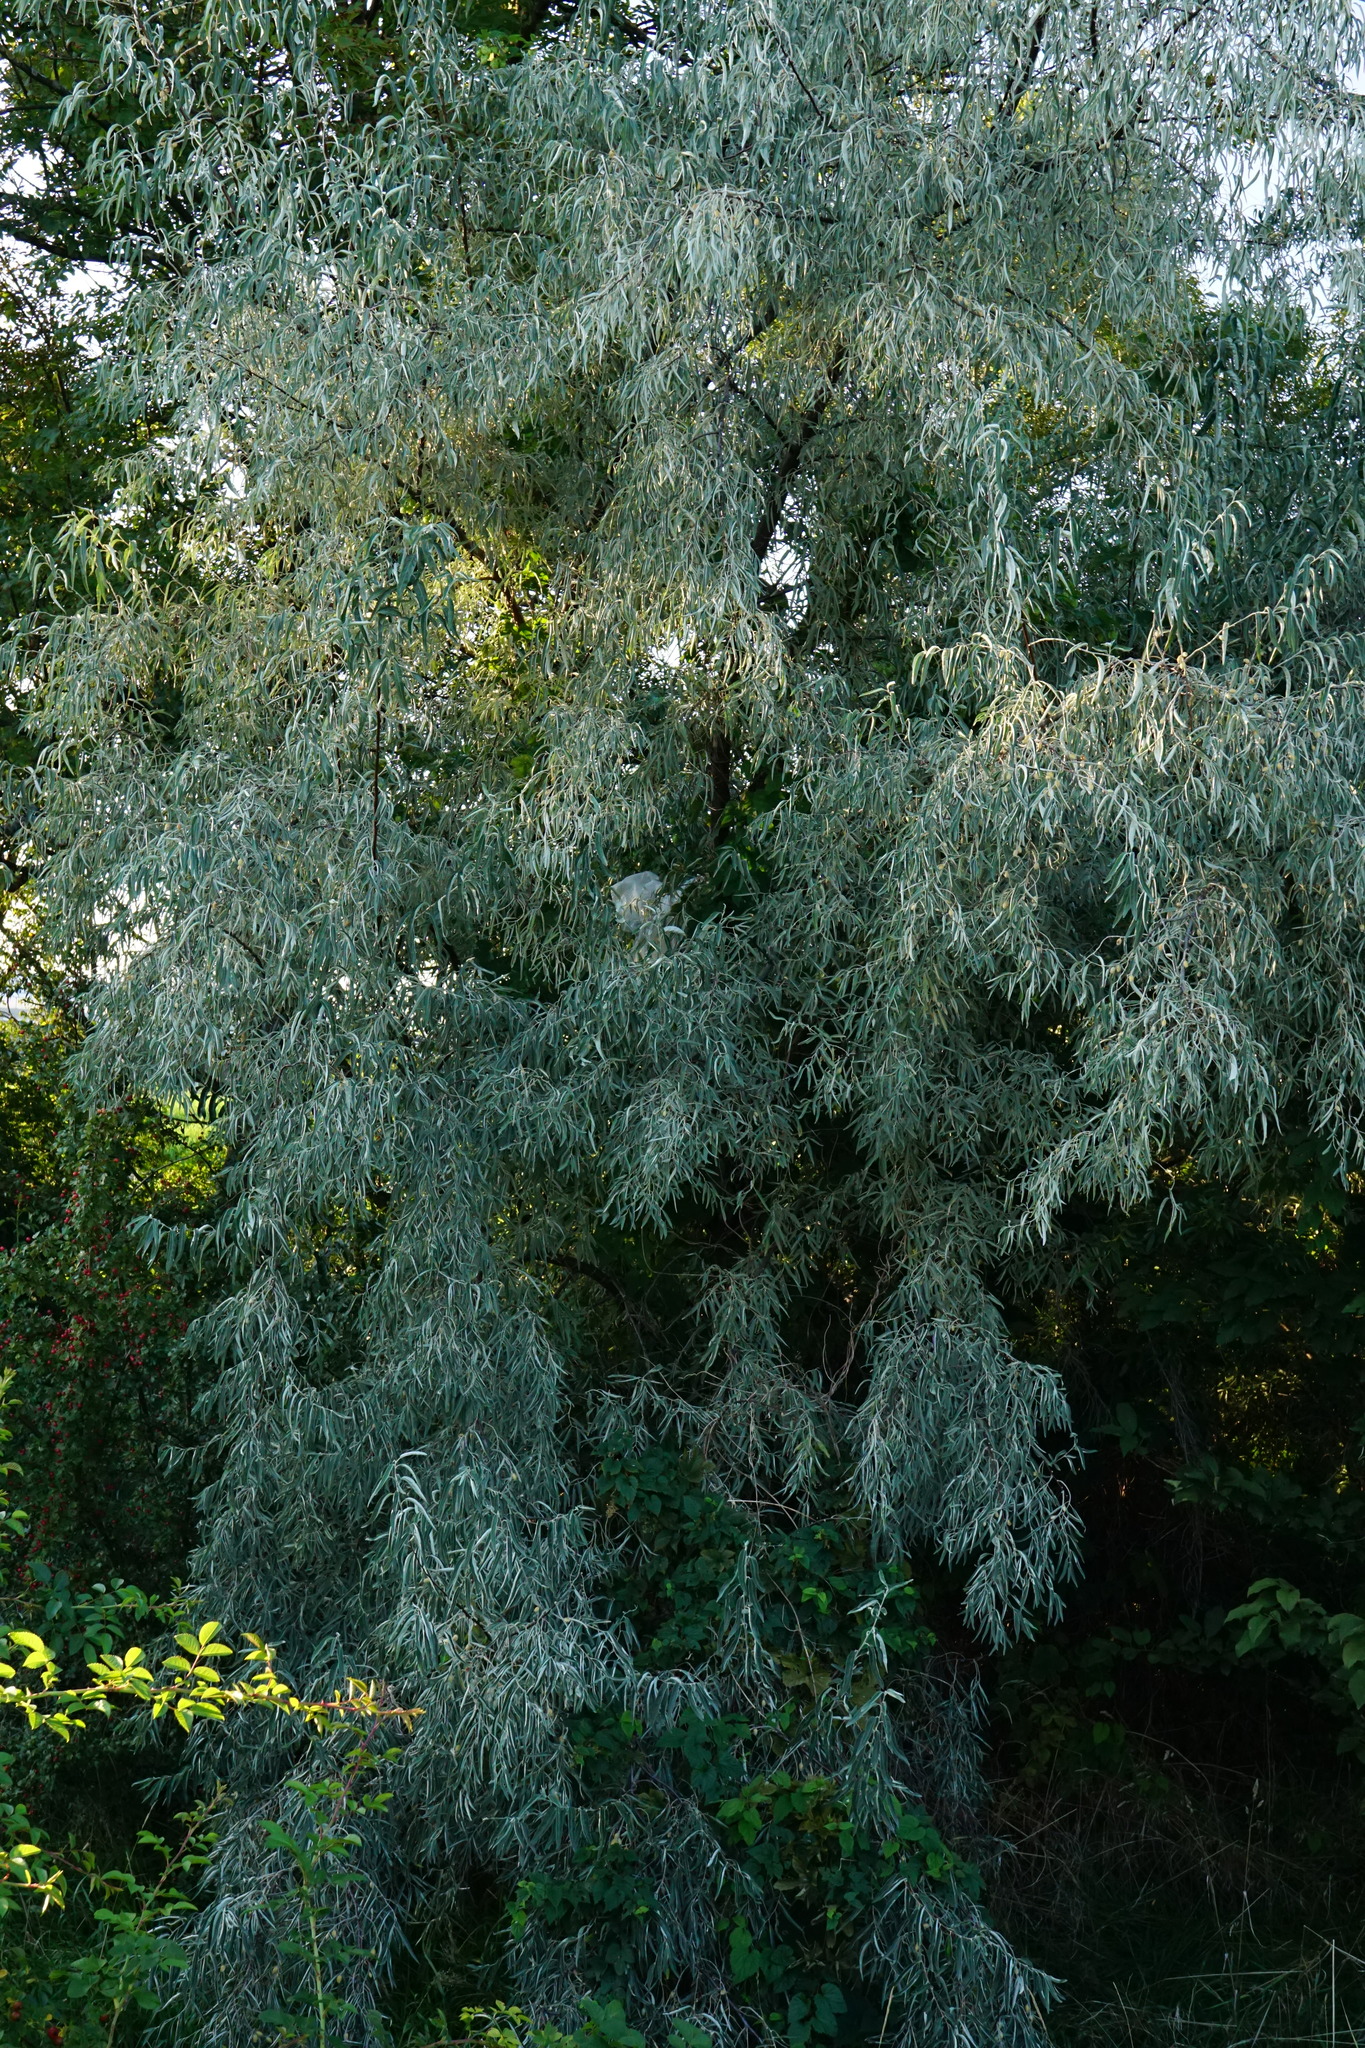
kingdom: Plantae
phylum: Tracheophyta
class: Magnoliopsida
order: Rosales
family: Elaeagnaceae
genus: Elaeagnus
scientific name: Elaeagnus angustifolia
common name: Russian olive
